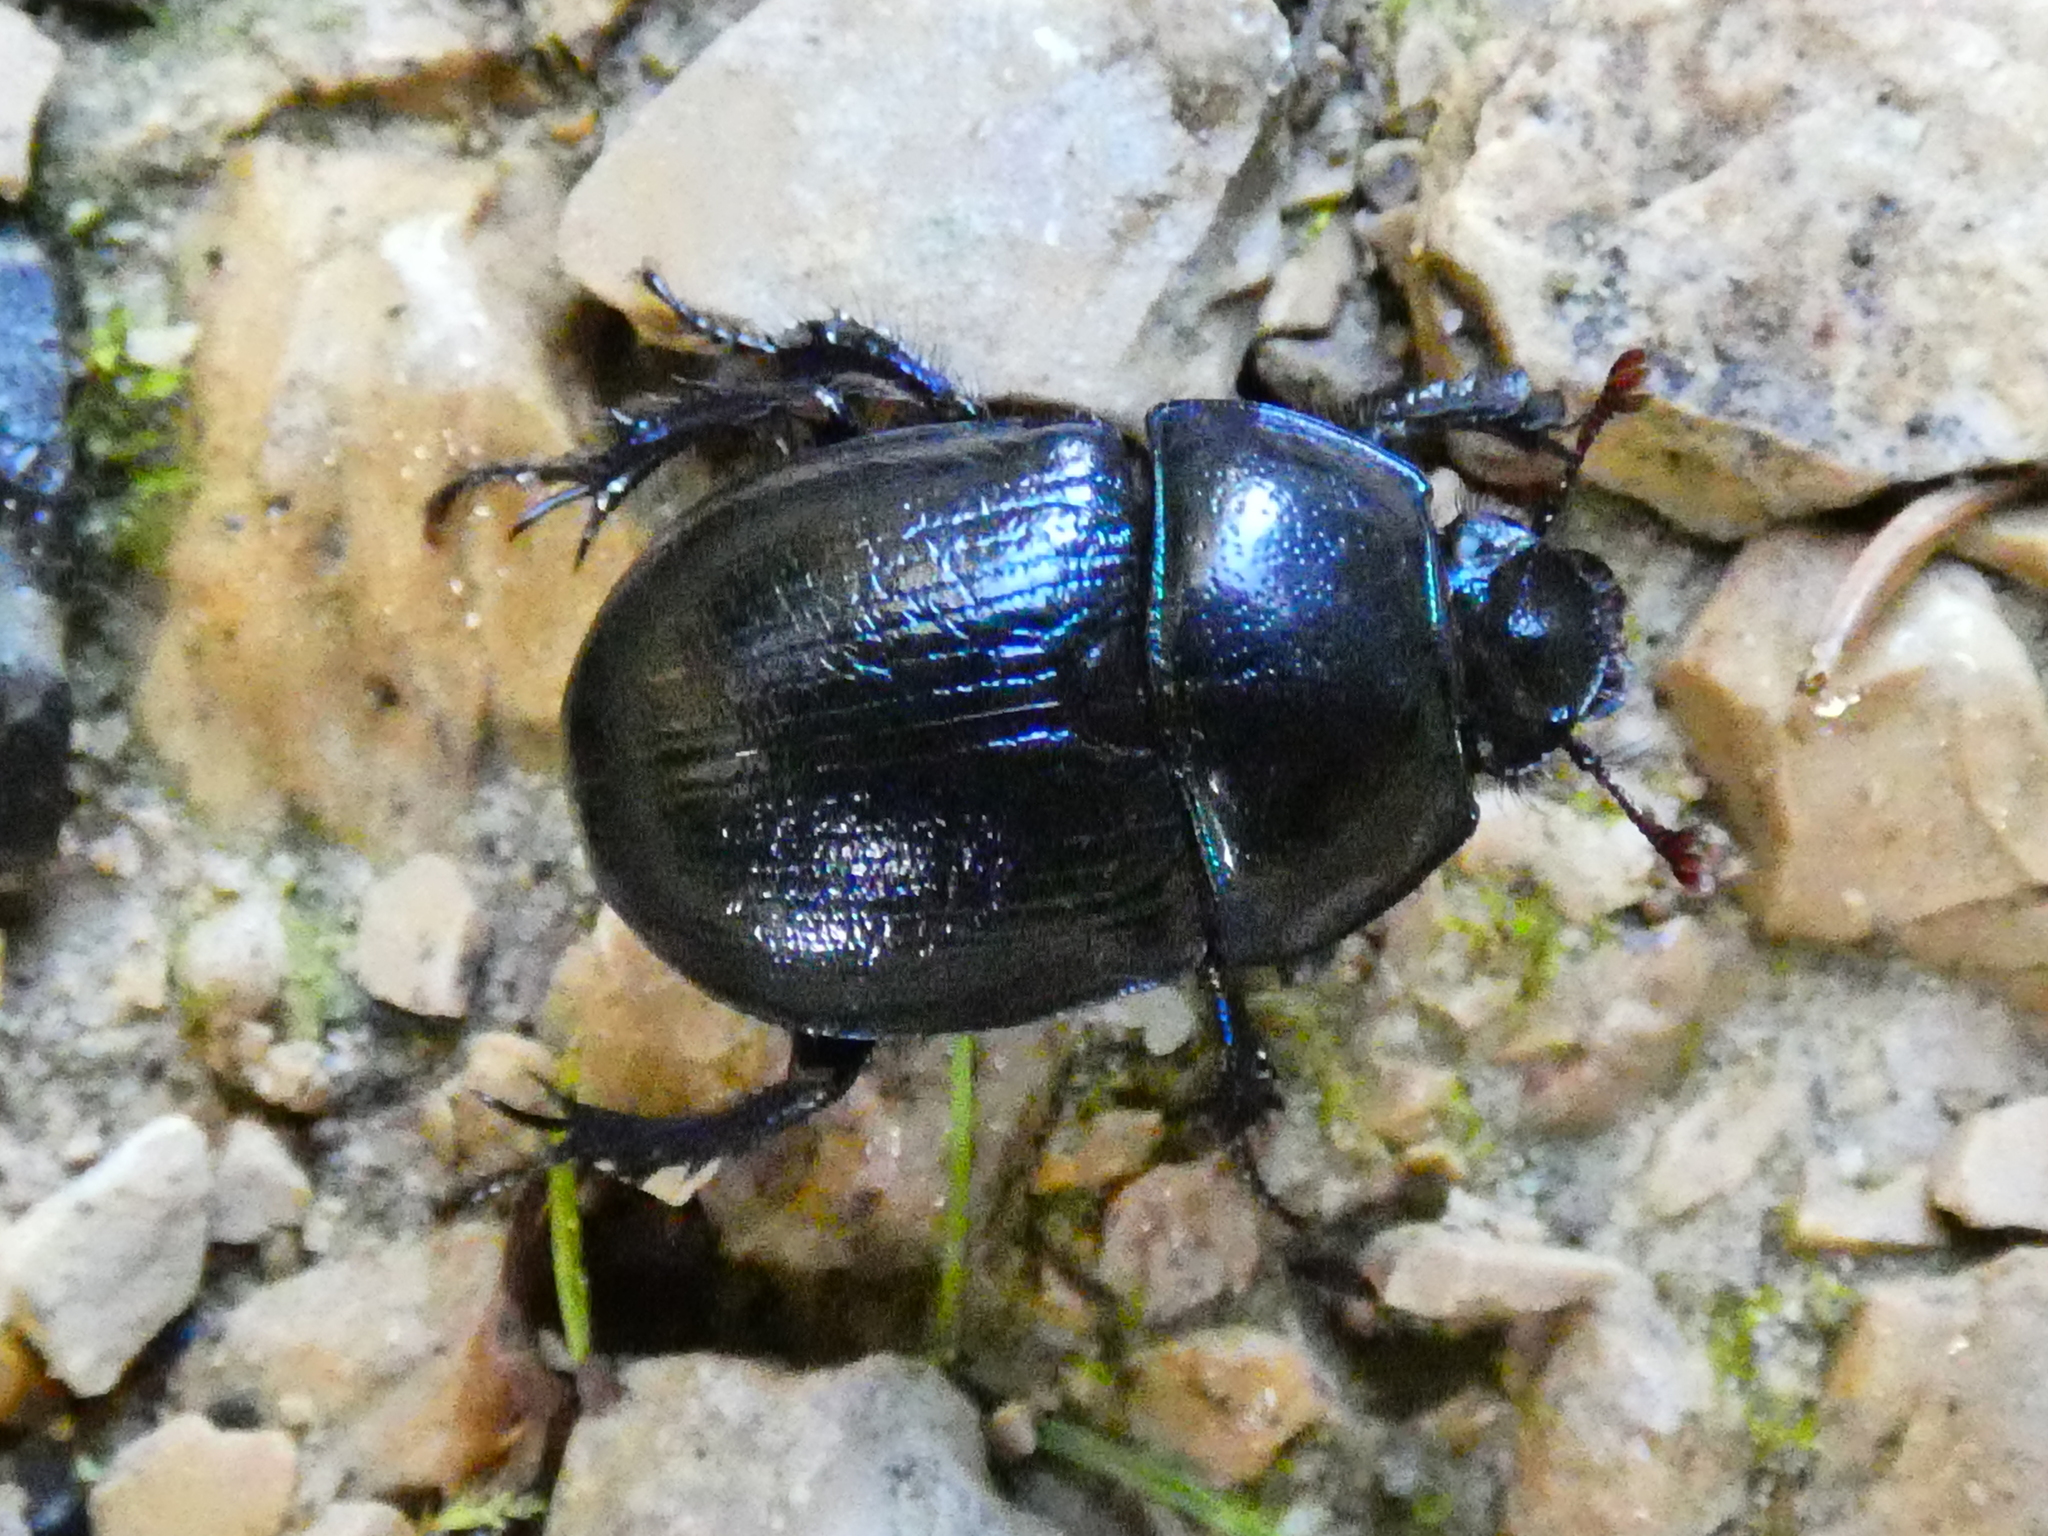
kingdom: Animalia
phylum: Arthropoda
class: Insecta
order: Coleoptera
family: Geotrupidae
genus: Anoplotrupes
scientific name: Anoplotrupes stercorosus
